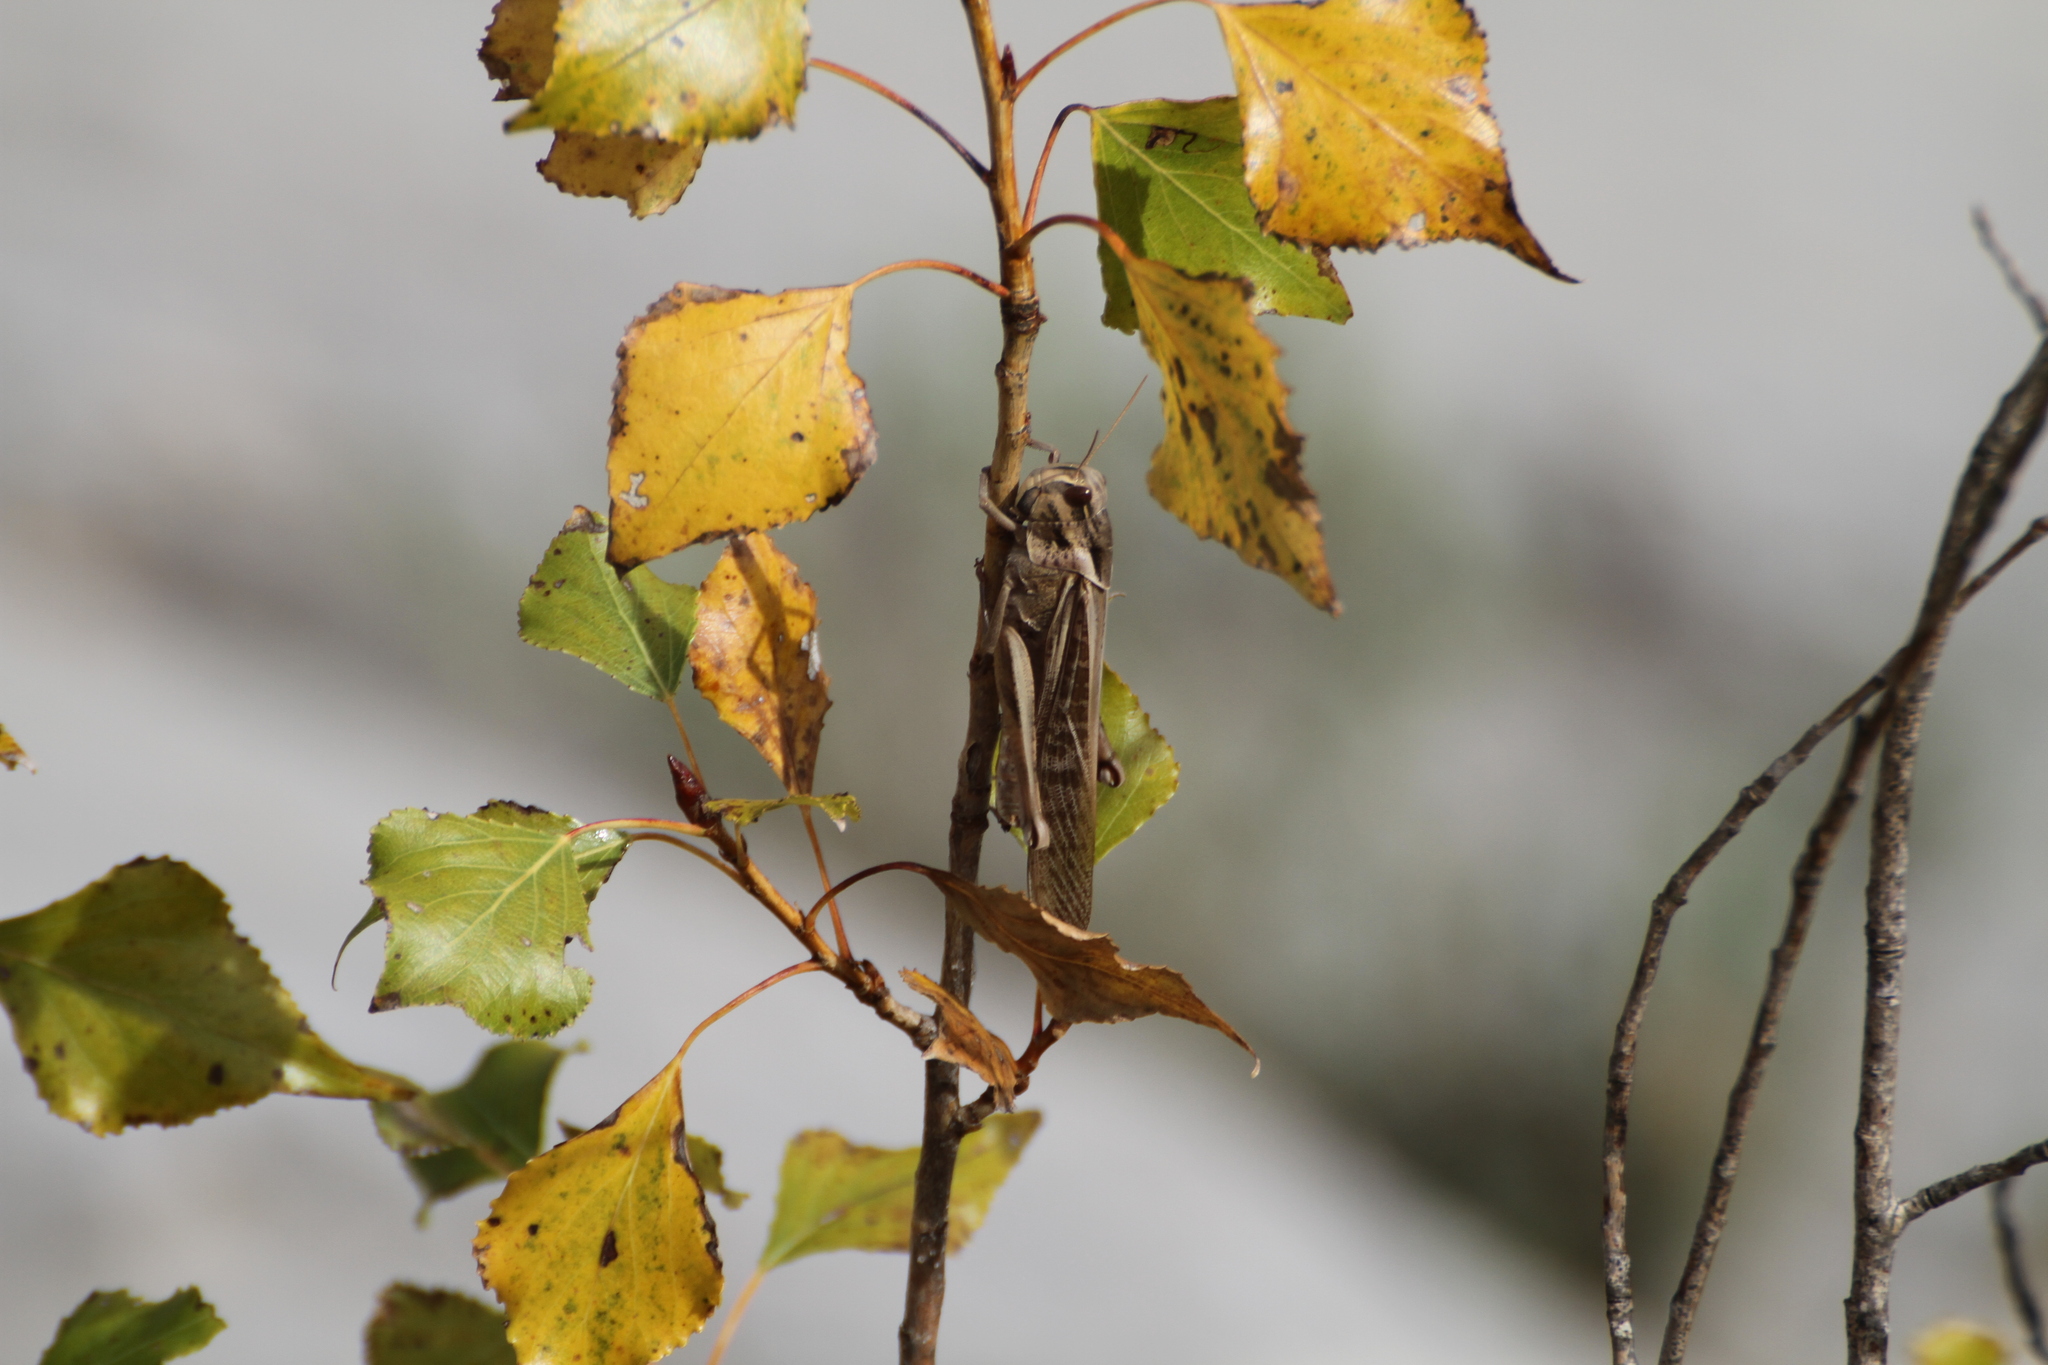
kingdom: Animalia
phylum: Arthropoda
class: Insecta
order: Orthoptera
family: Acrididae
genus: Locusta
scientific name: Locusta migratoria
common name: Migratory locust
